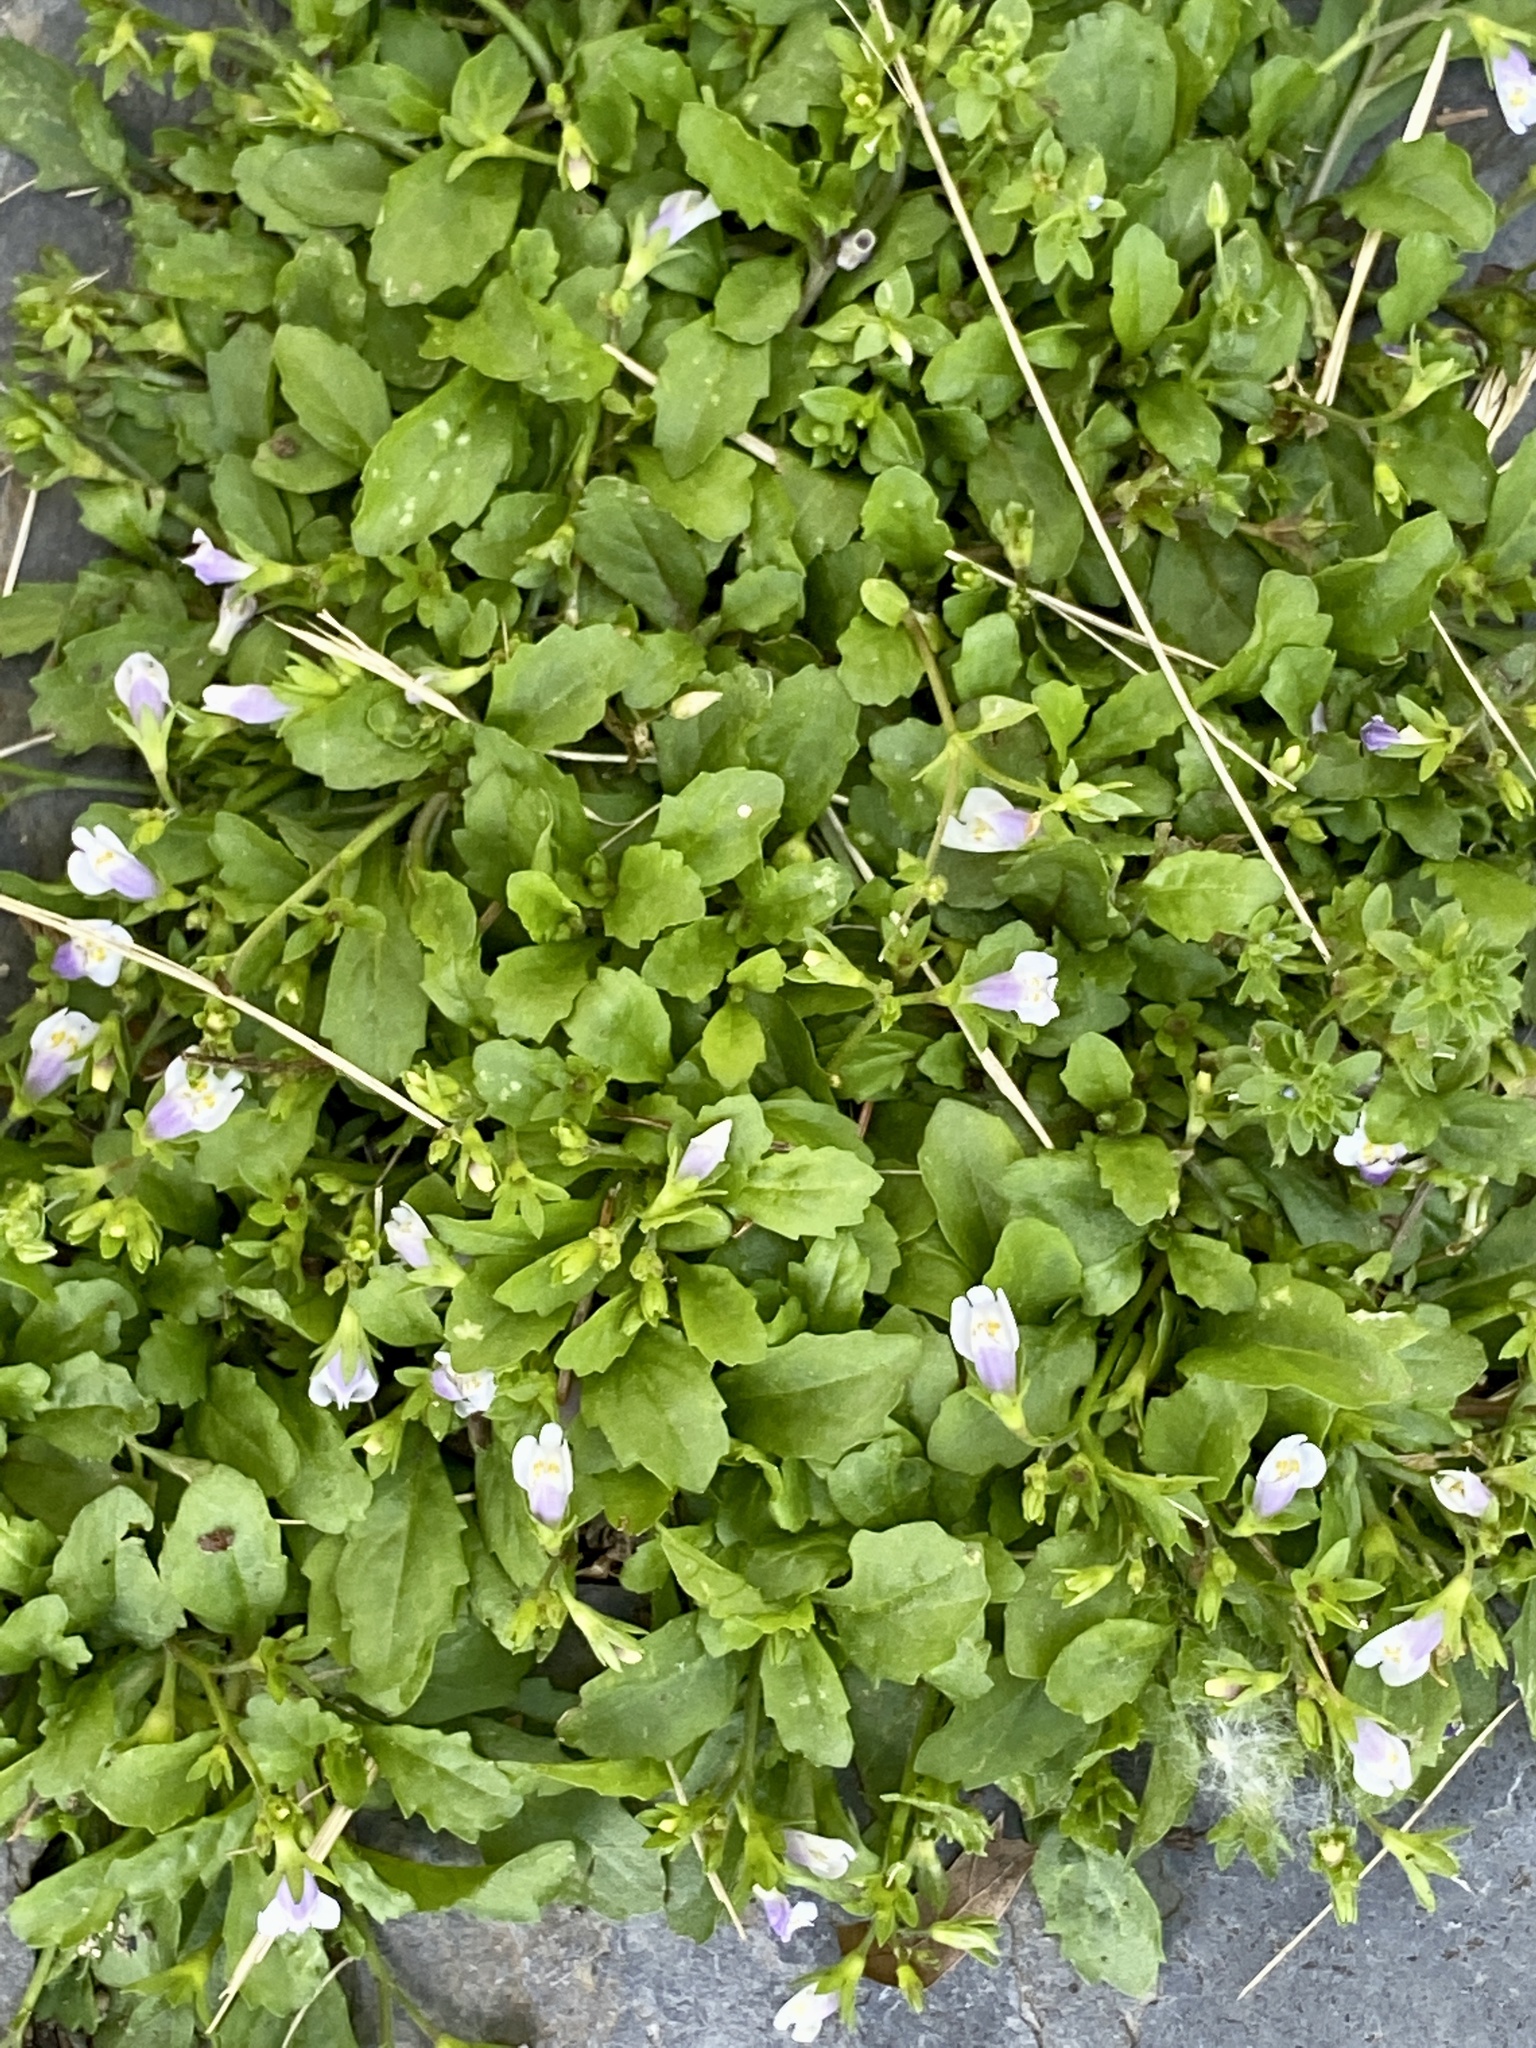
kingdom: Plantae
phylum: Tracheophyta
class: Magnoliopsida
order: Lamiales
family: Mazaceae
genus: Mazus
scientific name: Mazus pumilus
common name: Japanese mazus
